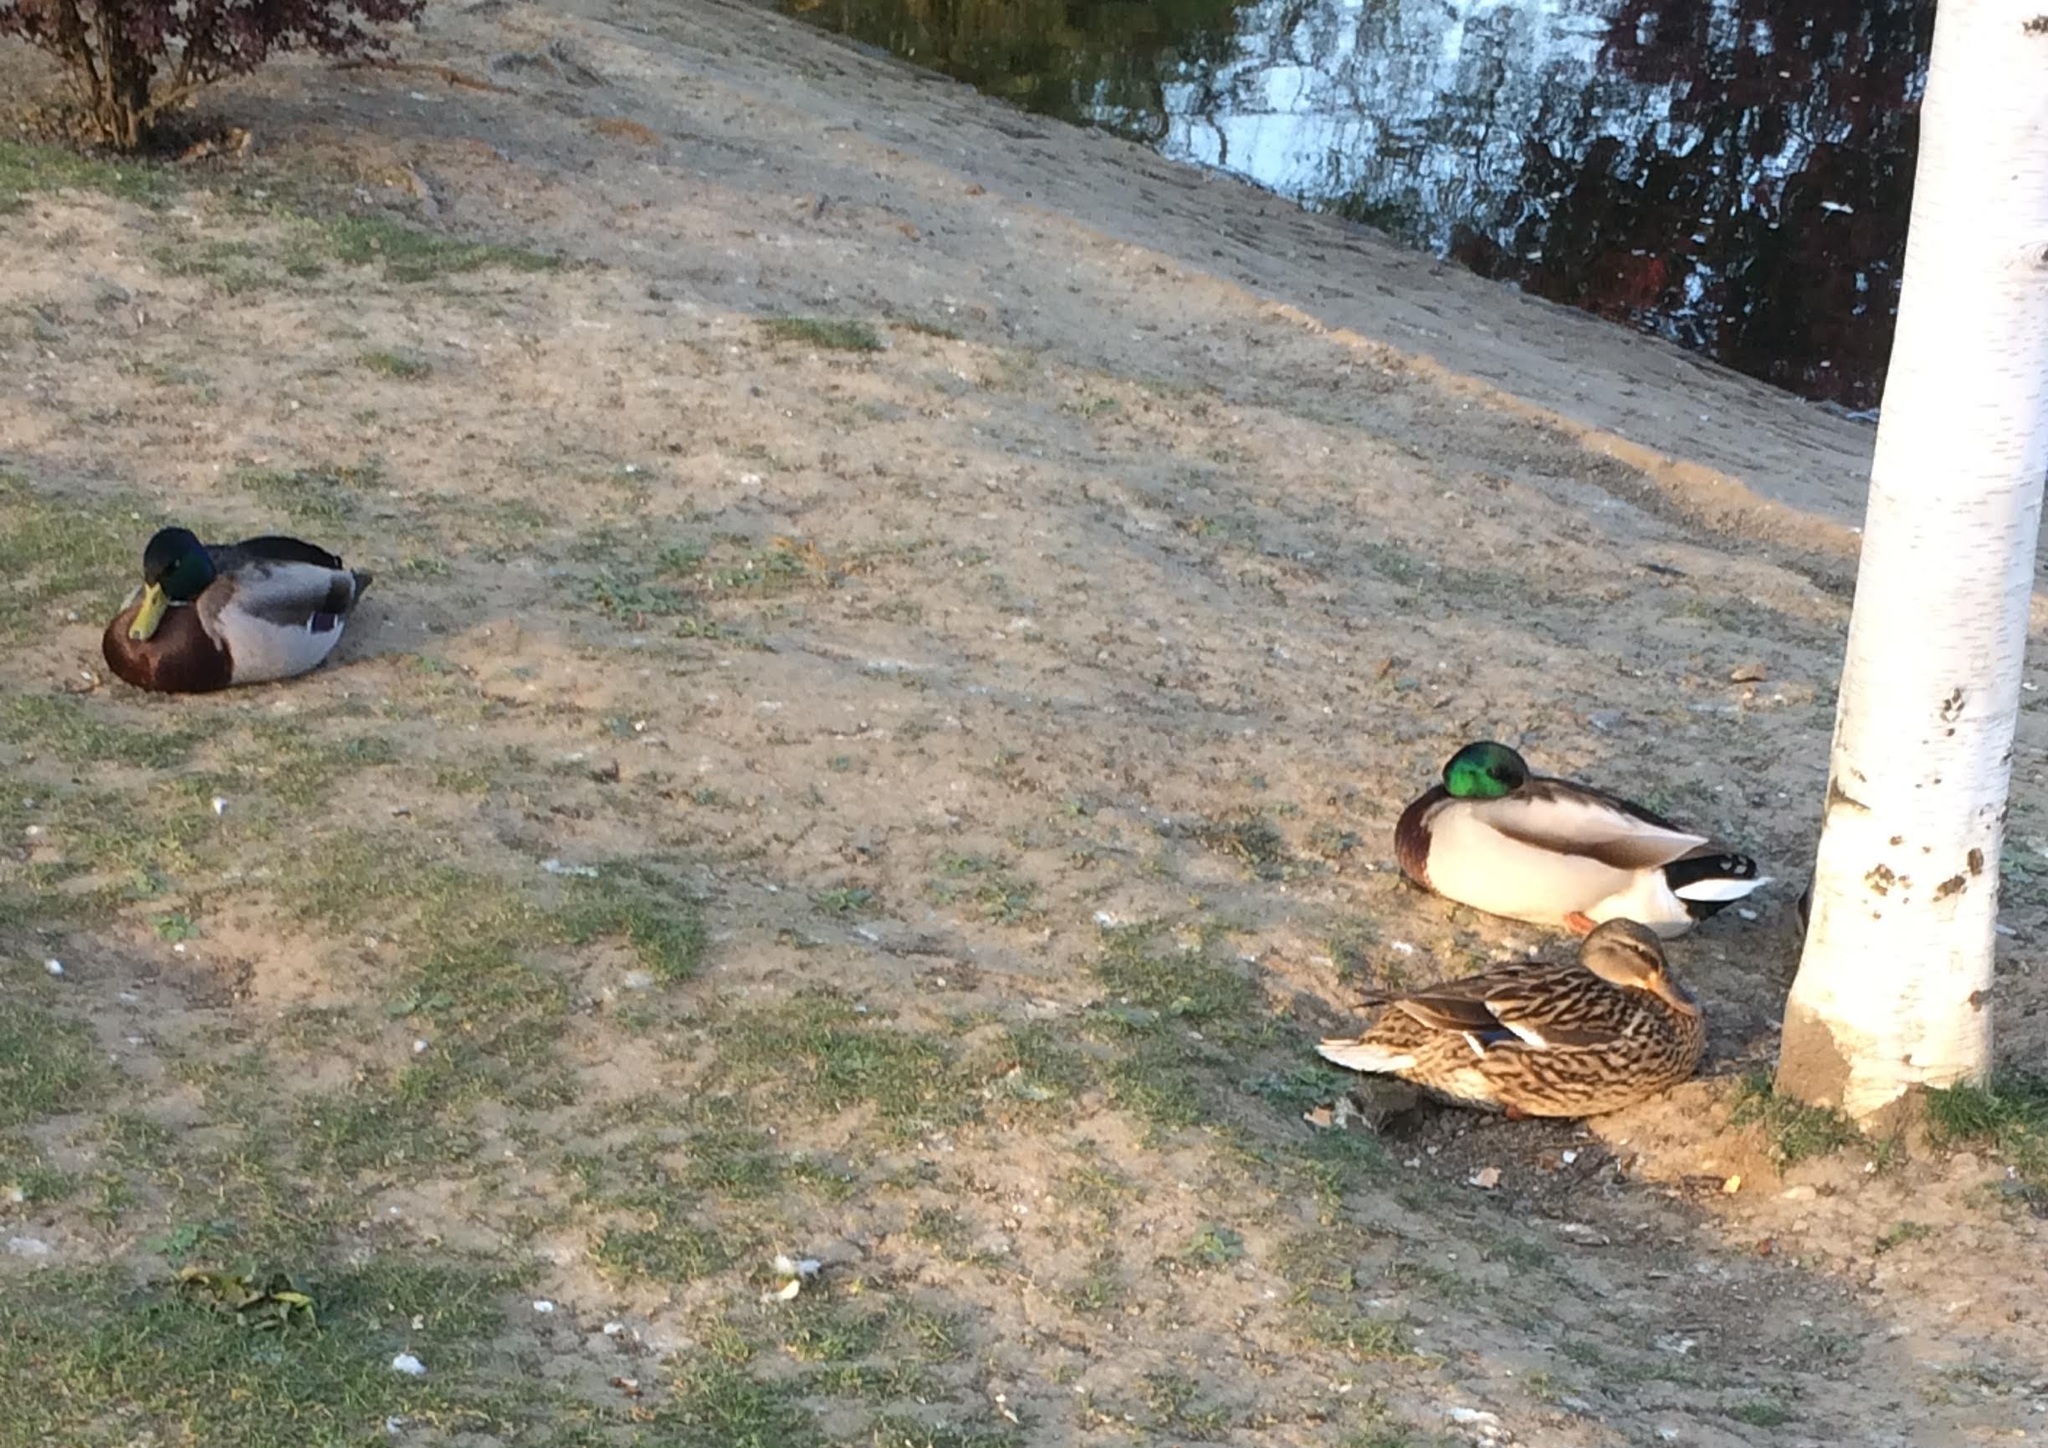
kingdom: Animalia
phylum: Chordata
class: Aves
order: Anseriformes
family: Anatidae
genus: Anas
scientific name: Anas platyrhynchos
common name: Mallard
